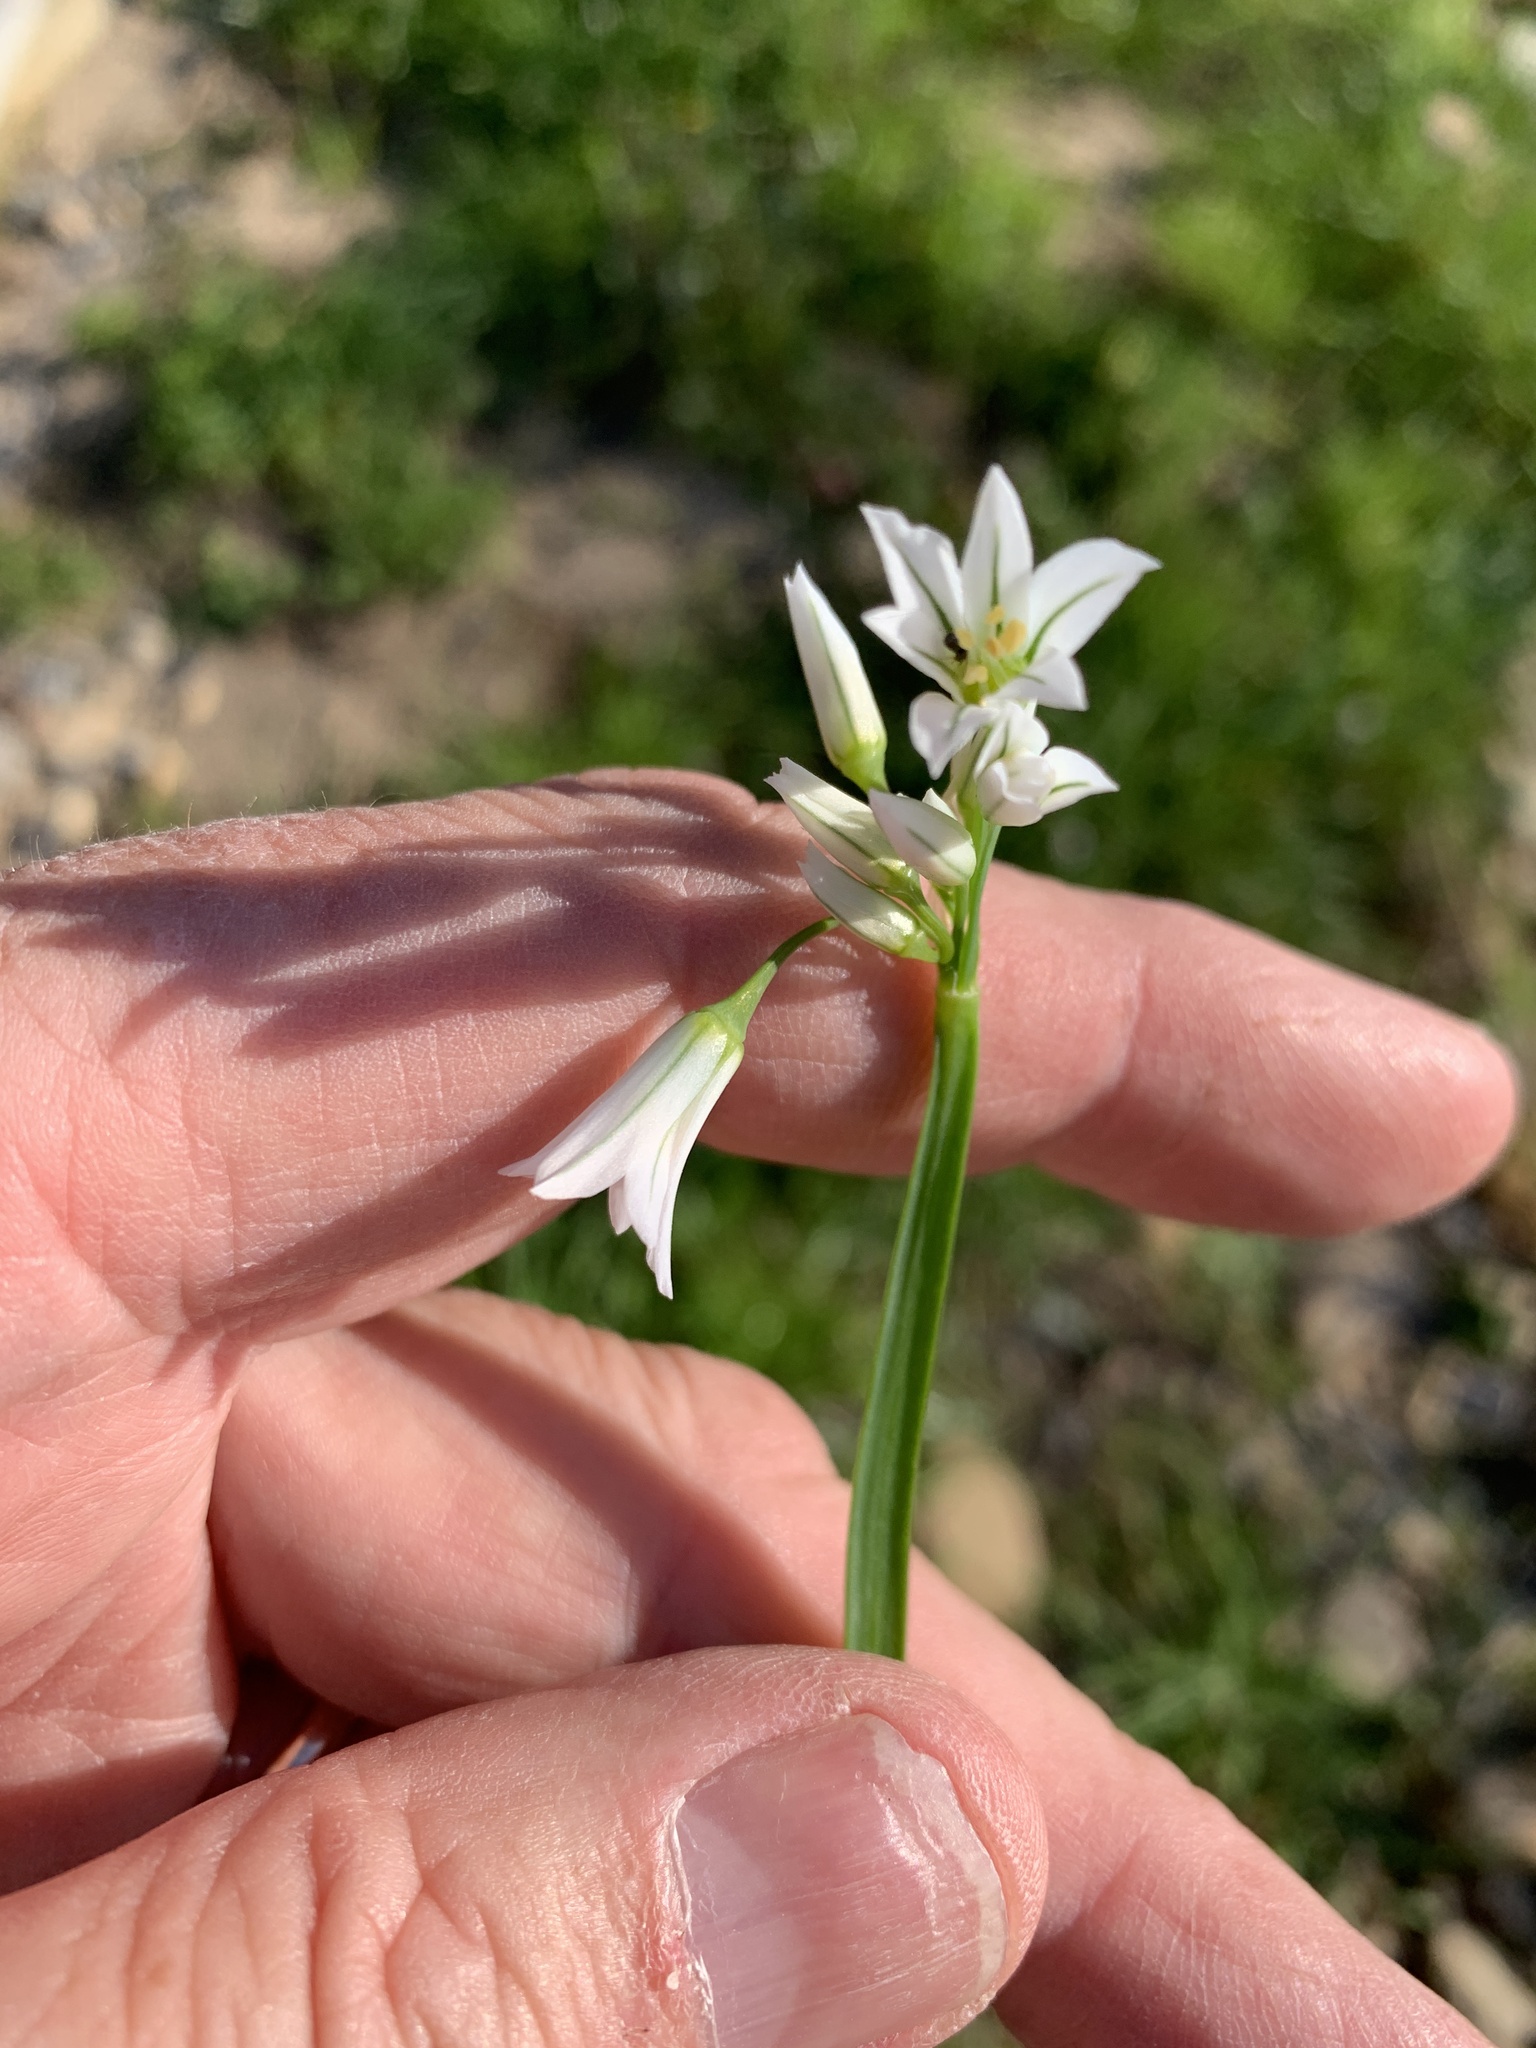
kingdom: Plantae
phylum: Tracheophyta
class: Liliopsida
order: Asparagales
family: Amaryllidaceae
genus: Allium
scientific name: Allium triquetrum
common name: Three-cornered garlic
